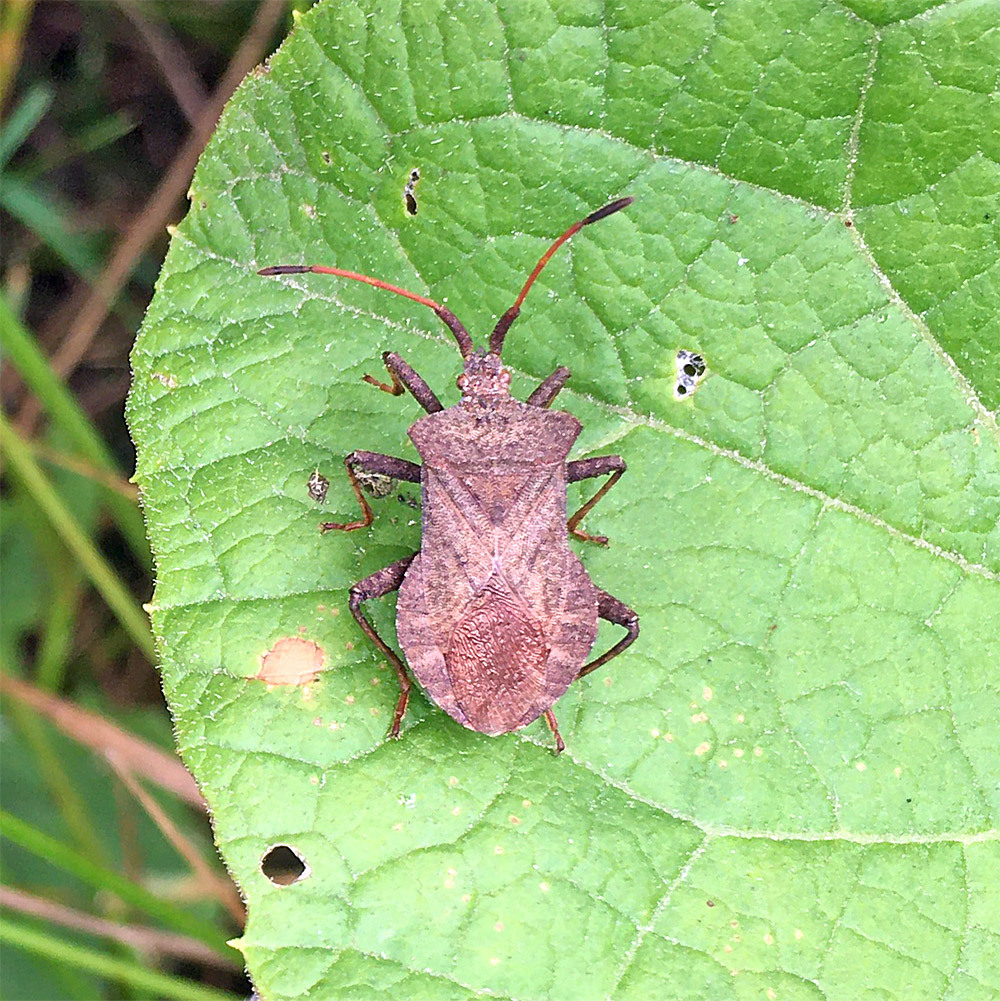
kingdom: Animalia
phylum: Arthropoda
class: Insecta
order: Hemiptera
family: Coreidae
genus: Coreus
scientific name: Coreus marginatus
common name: Dock bug
